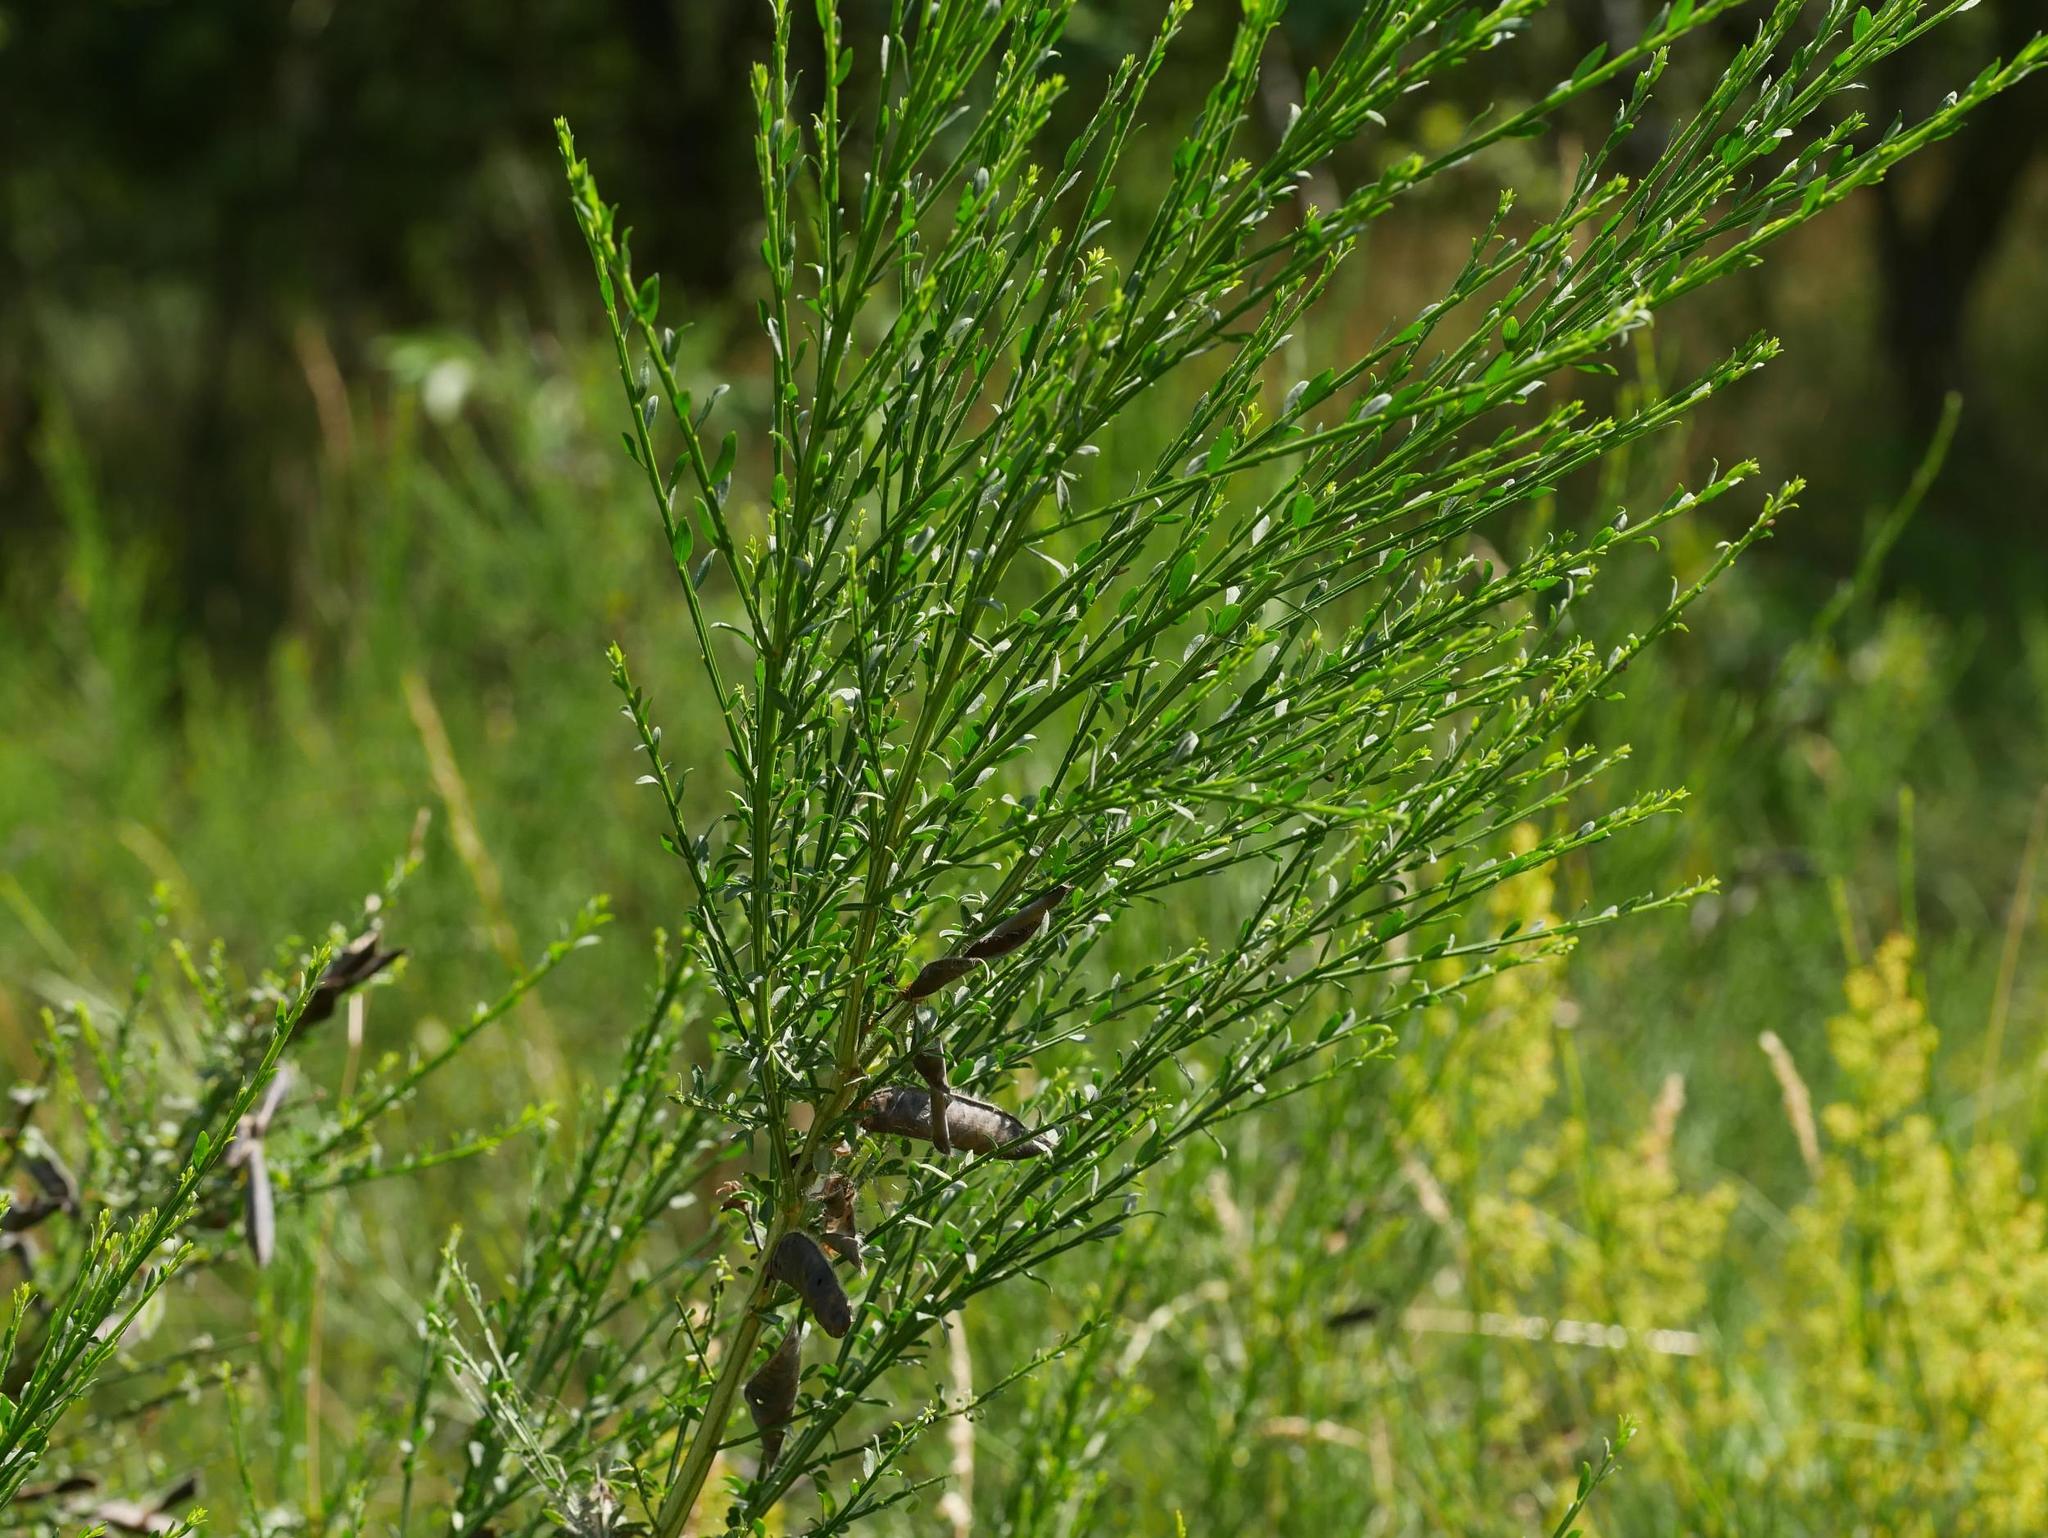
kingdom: Plantae
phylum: Tracheophyta
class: Magnoliopsida
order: Fabales
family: Fabaceae
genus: Cytisus
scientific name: Cytisus scoparius
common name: Scotch broom
